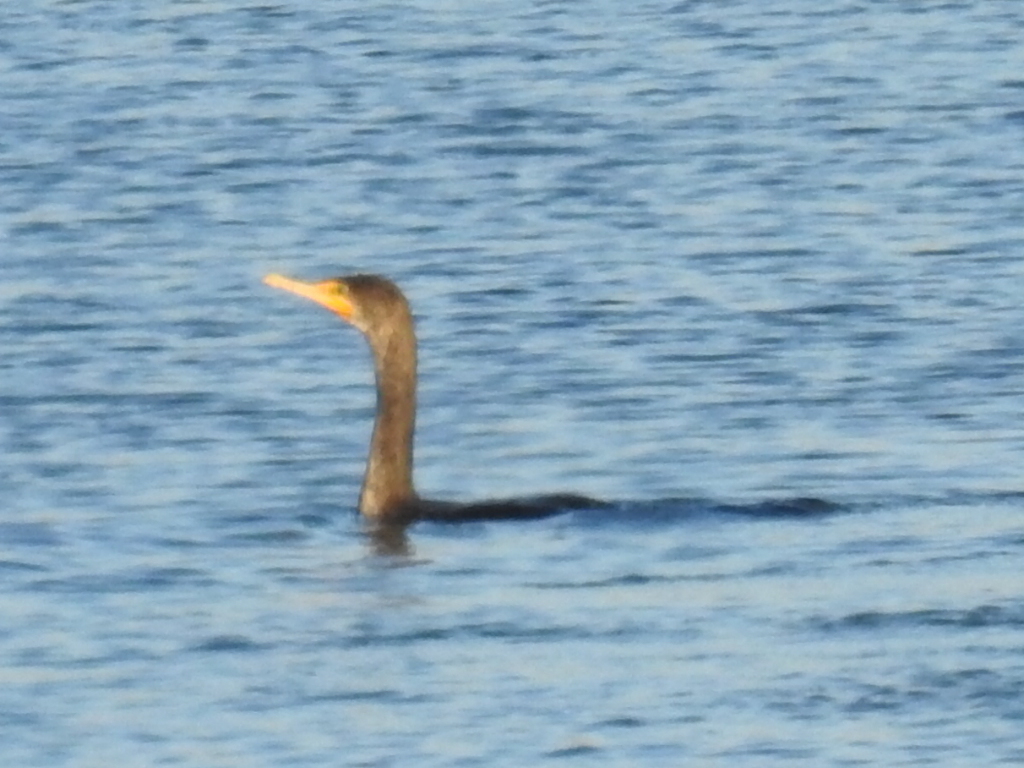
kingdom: Animalia
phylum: Chordata
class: Aves
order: Suliformes
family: Phalacrocoracidae
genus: Phalacrocorax
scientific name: Phalacrocorax auritus
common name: Double-crested cormorant
